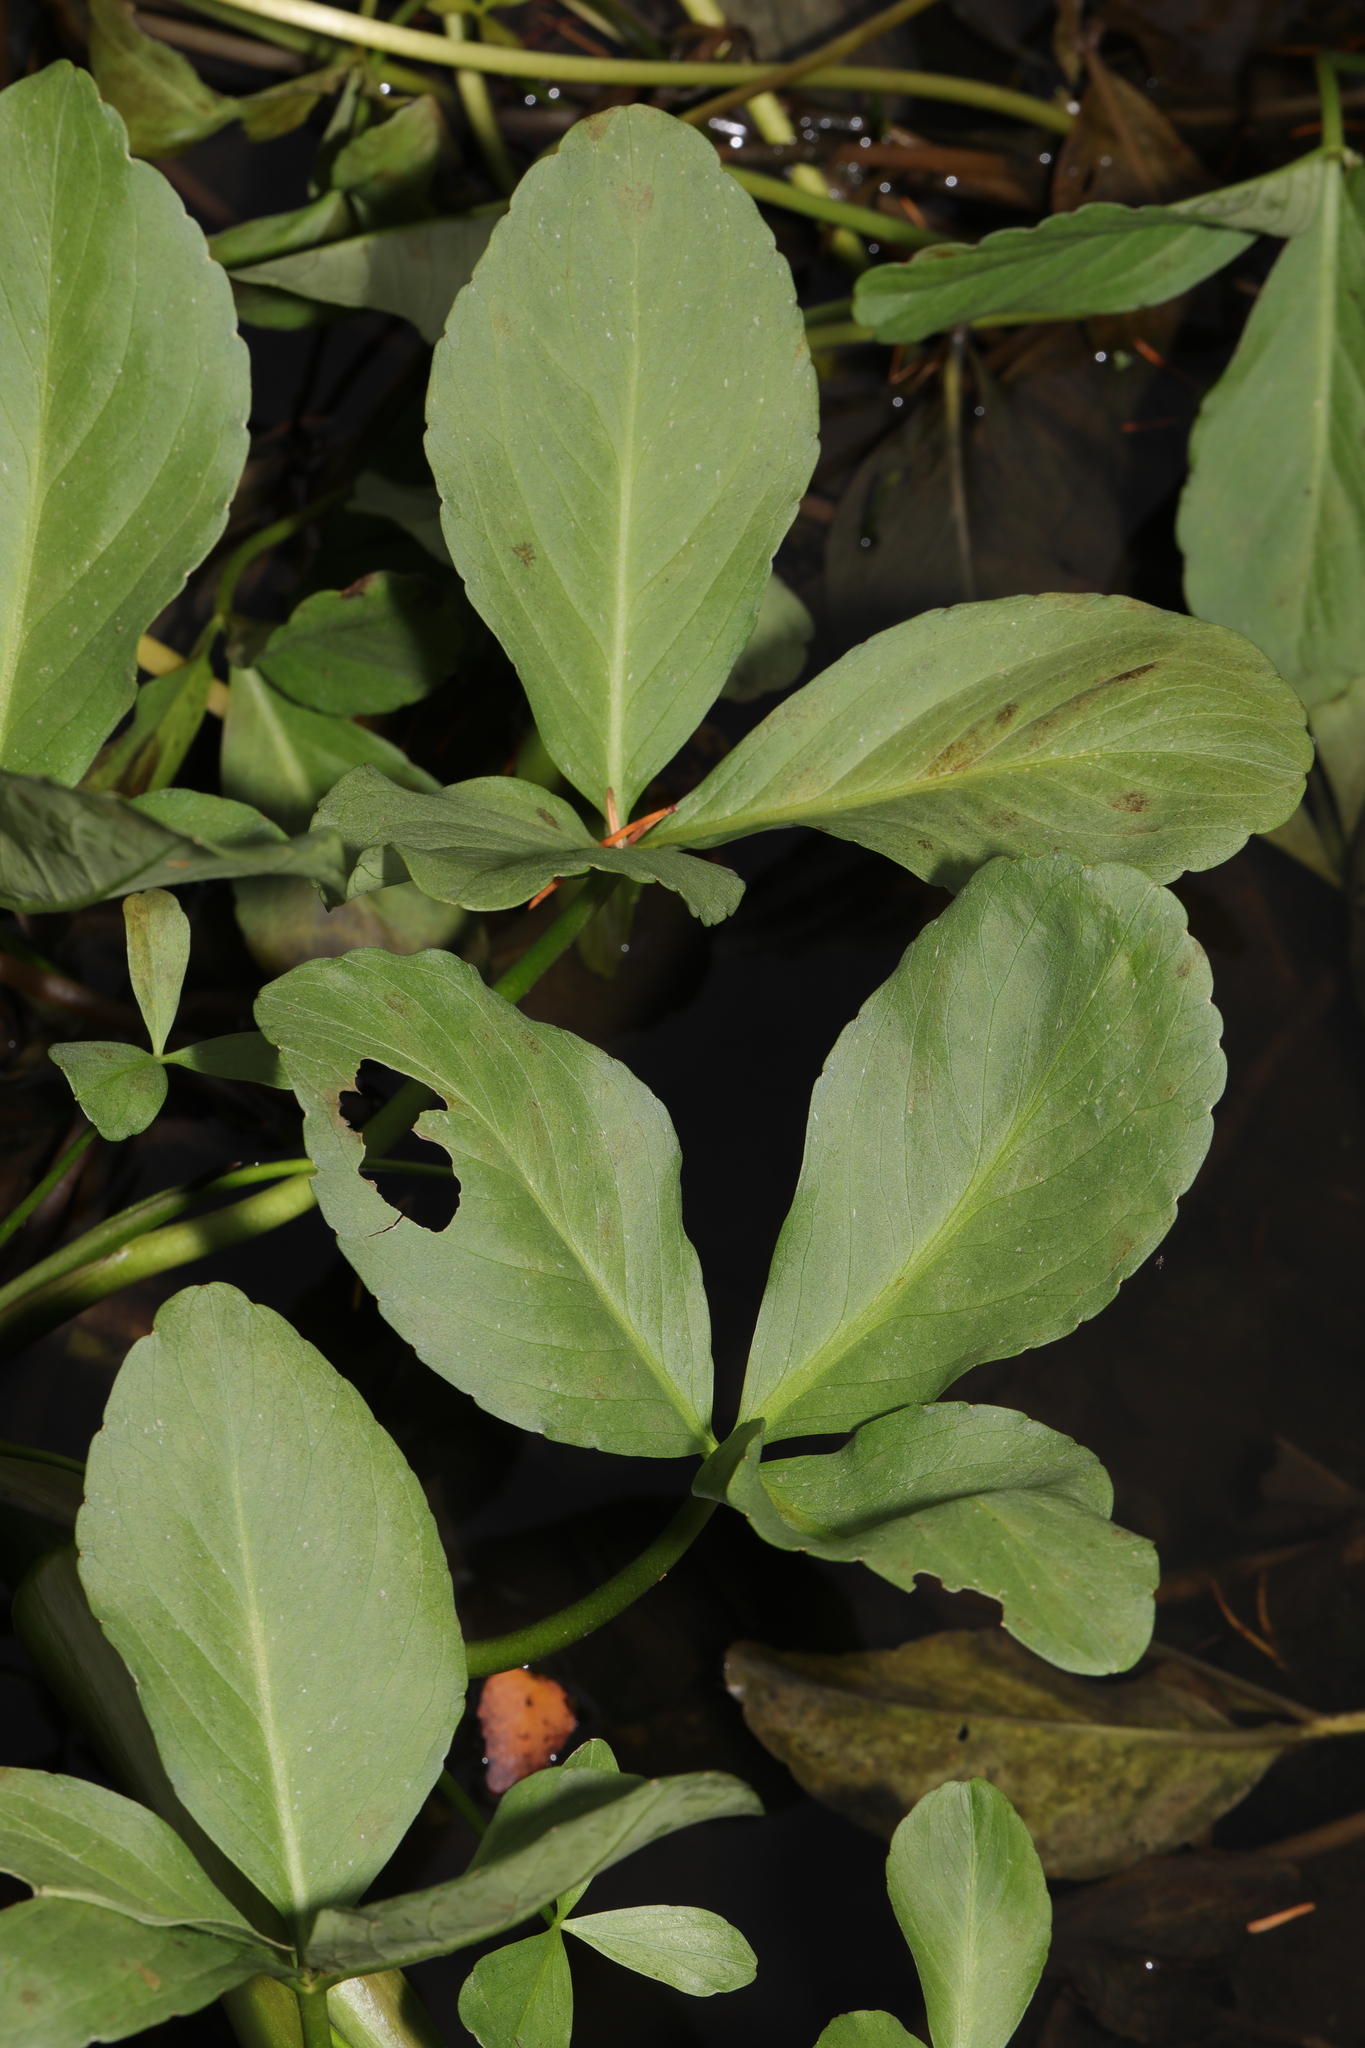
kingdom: Plantae
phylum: Tracheophyta
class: Magnoliopsida
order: Asterales
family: Menyanthaceae
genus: Menyanthes
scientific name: Menyanthes trifoliata
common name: Bogbean
